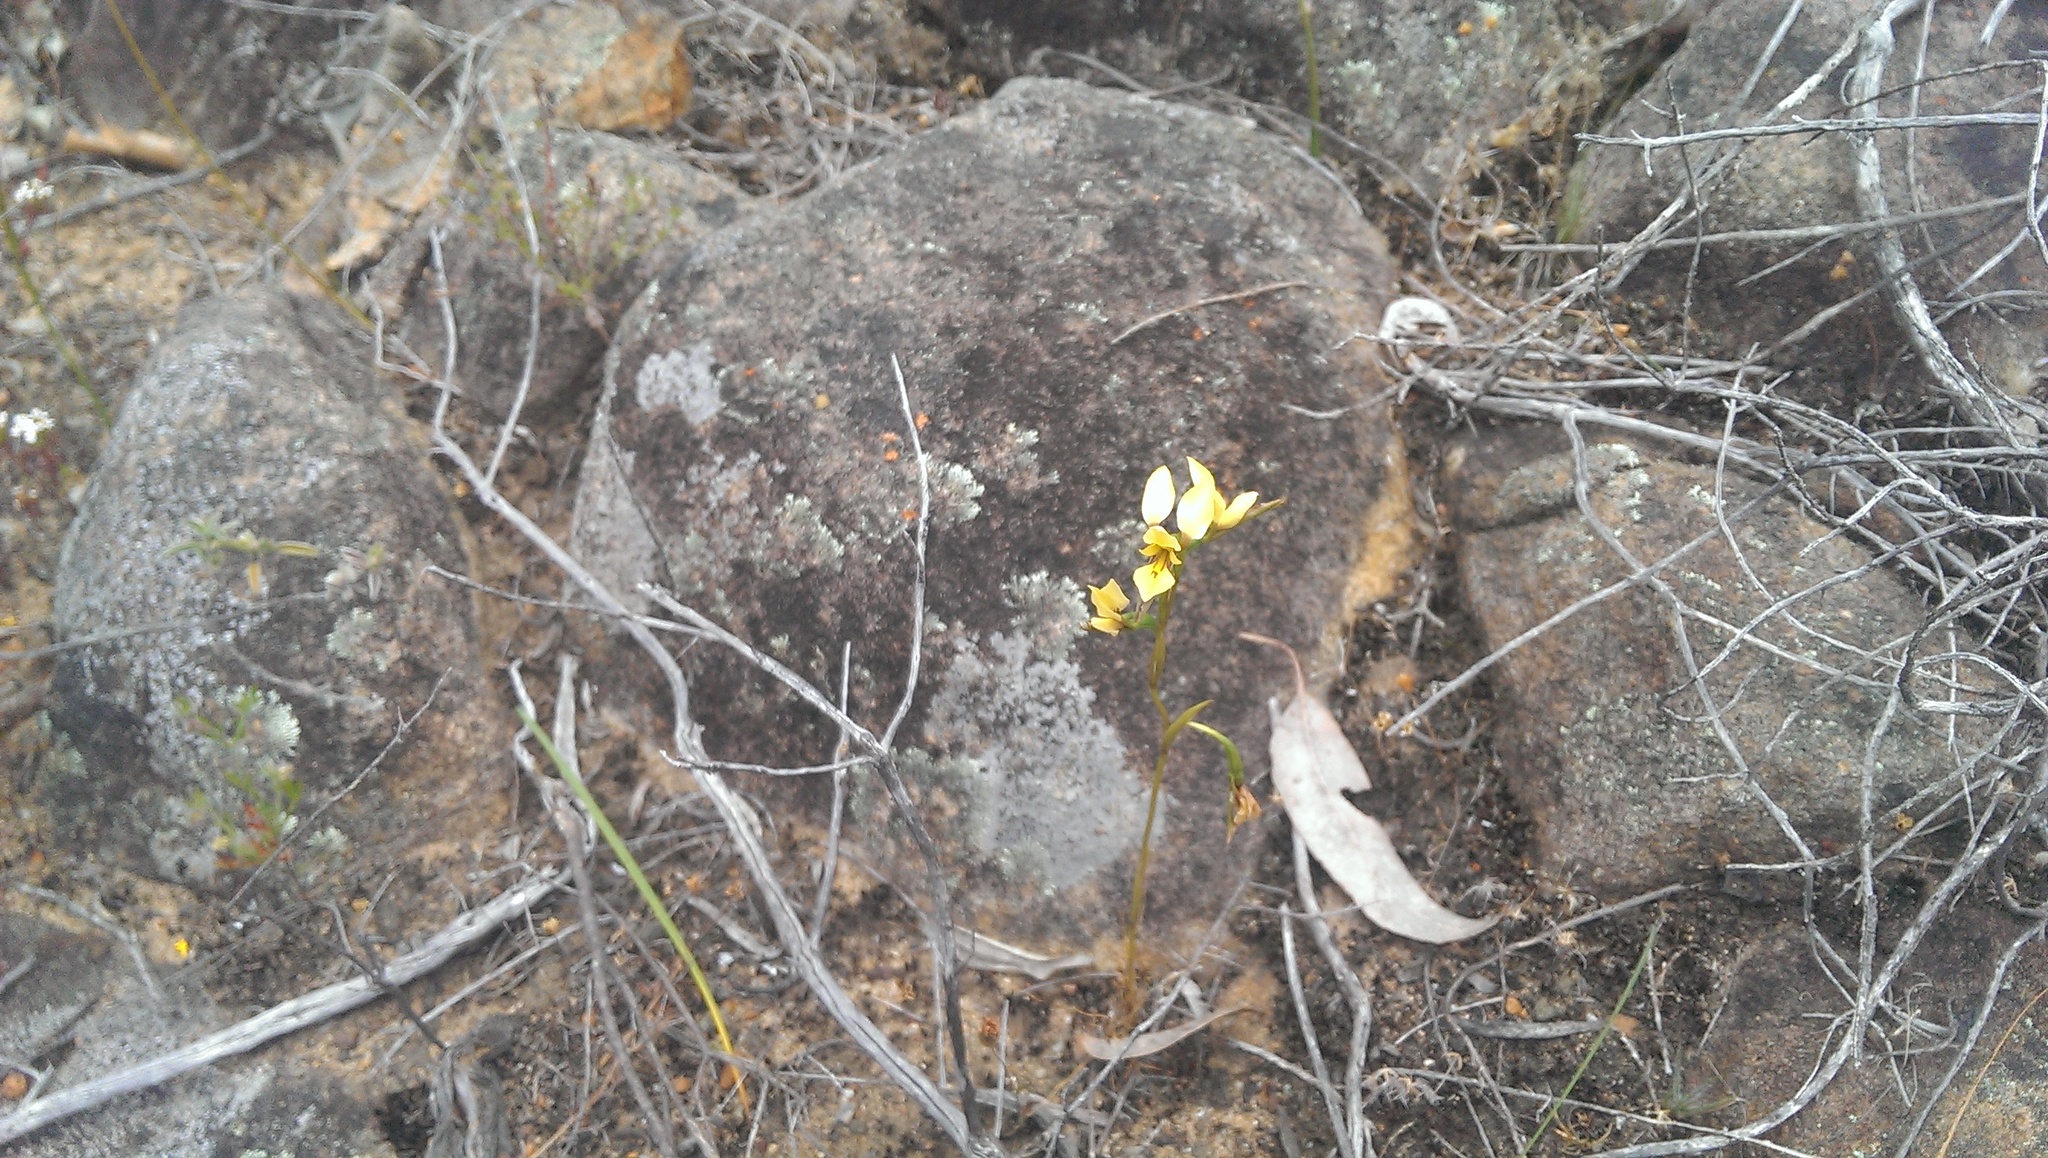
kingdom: Plantae
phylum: Tracheophyta
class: Liliopsida
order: Asparagales
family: Orchidaceae
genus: Diuris
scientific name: Diuris setacea
